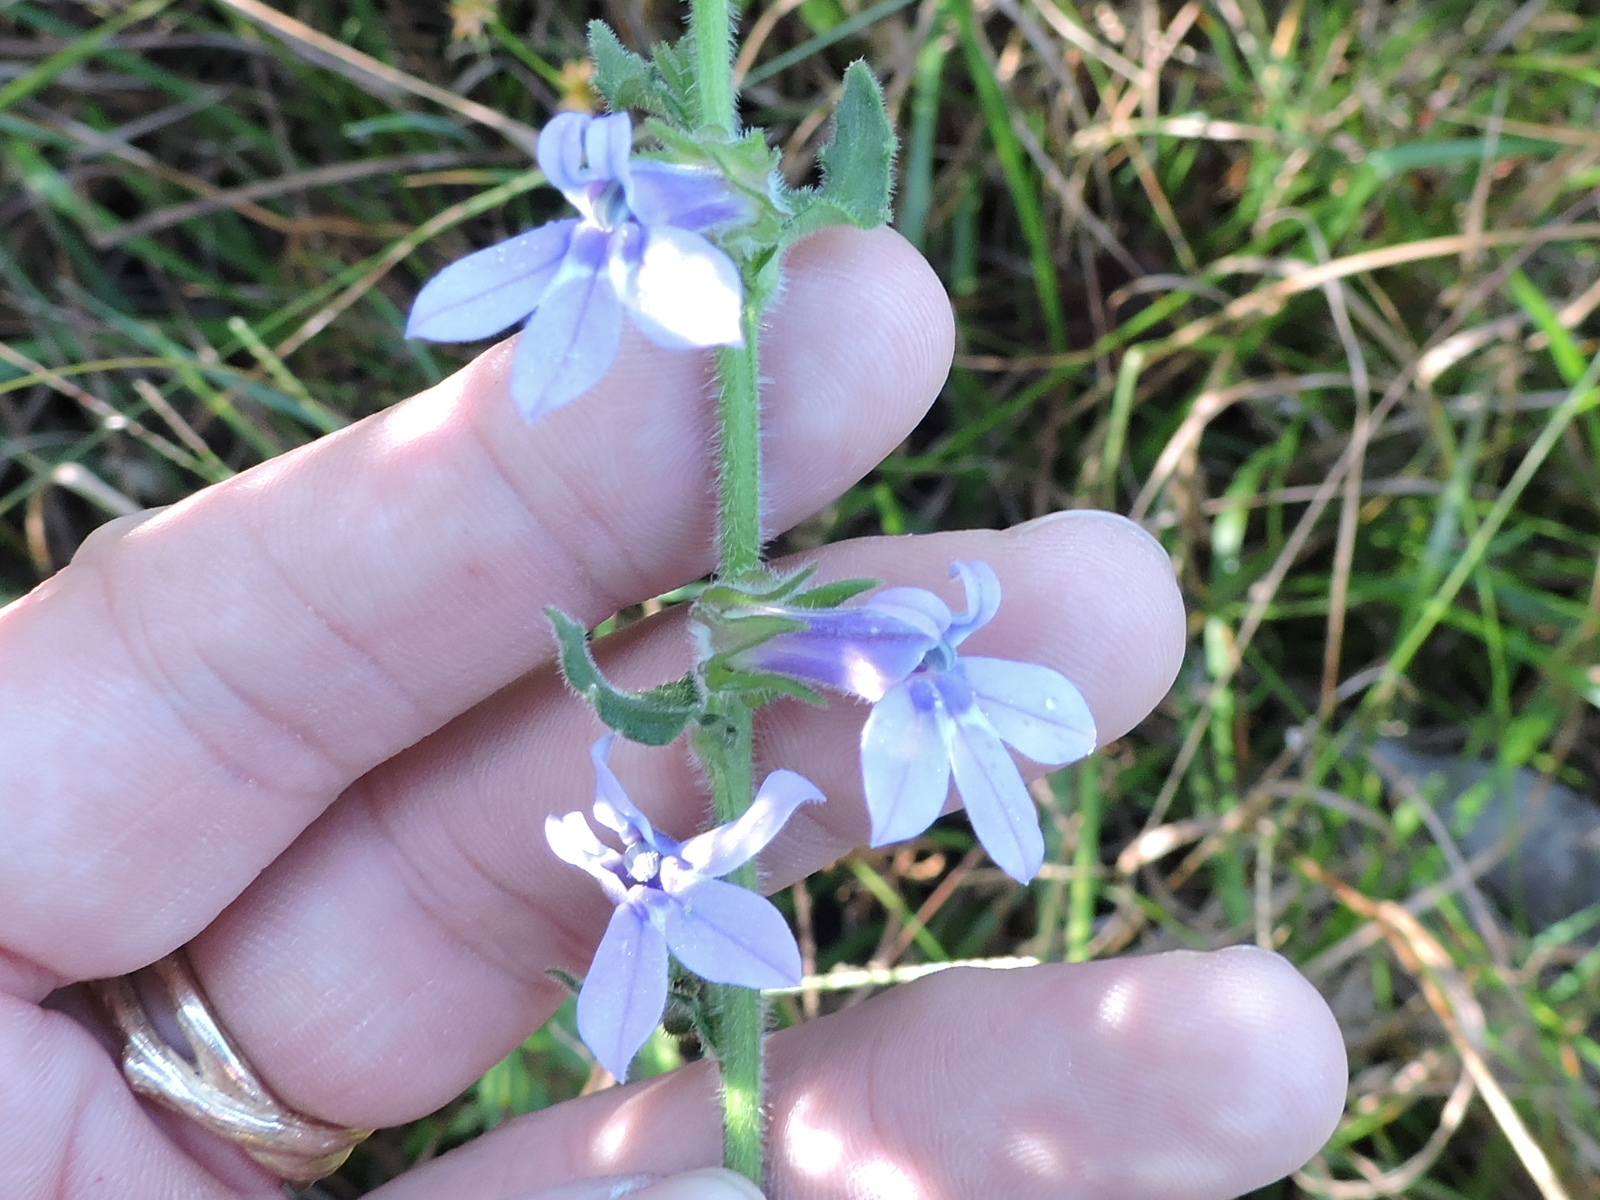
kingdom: Plantae
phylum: Tracheophyta
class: Magnoliopsida
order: Asterales
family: Campanulaceae
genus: Lobelia
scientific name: Lobelia reverchonii
